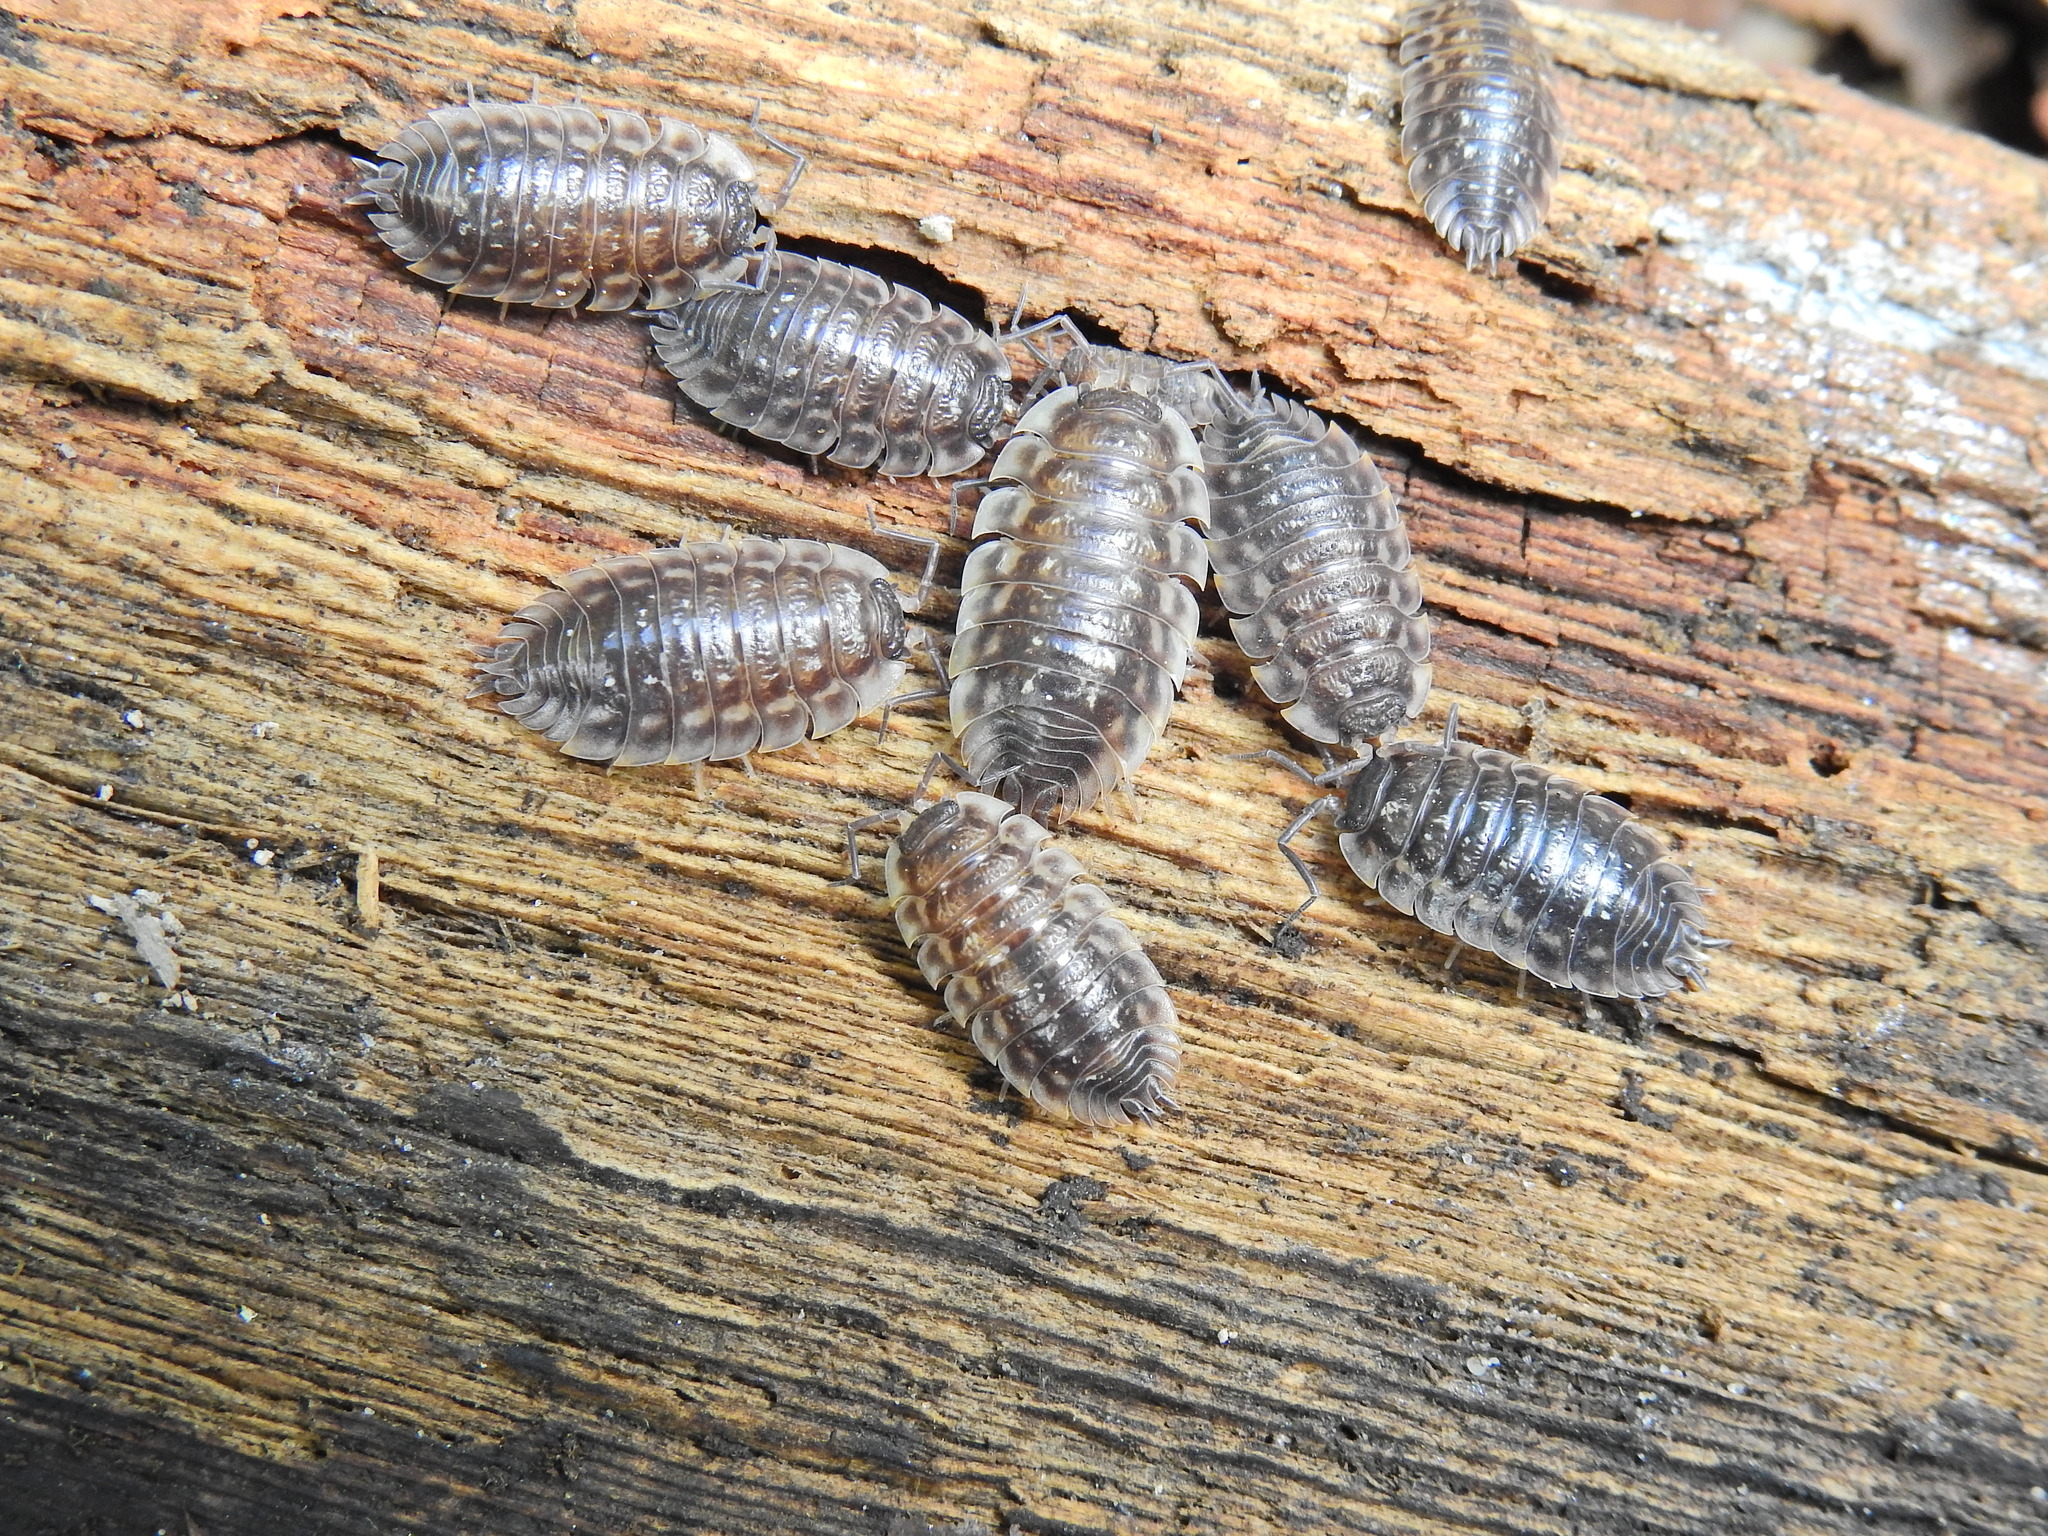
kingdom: Animalia
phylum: Arthropoda
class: Malacostraca
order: Isopoda
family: Oniscidae
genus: Oniscus
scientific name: Oniscus asellus
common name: Common shiny woodlouse
